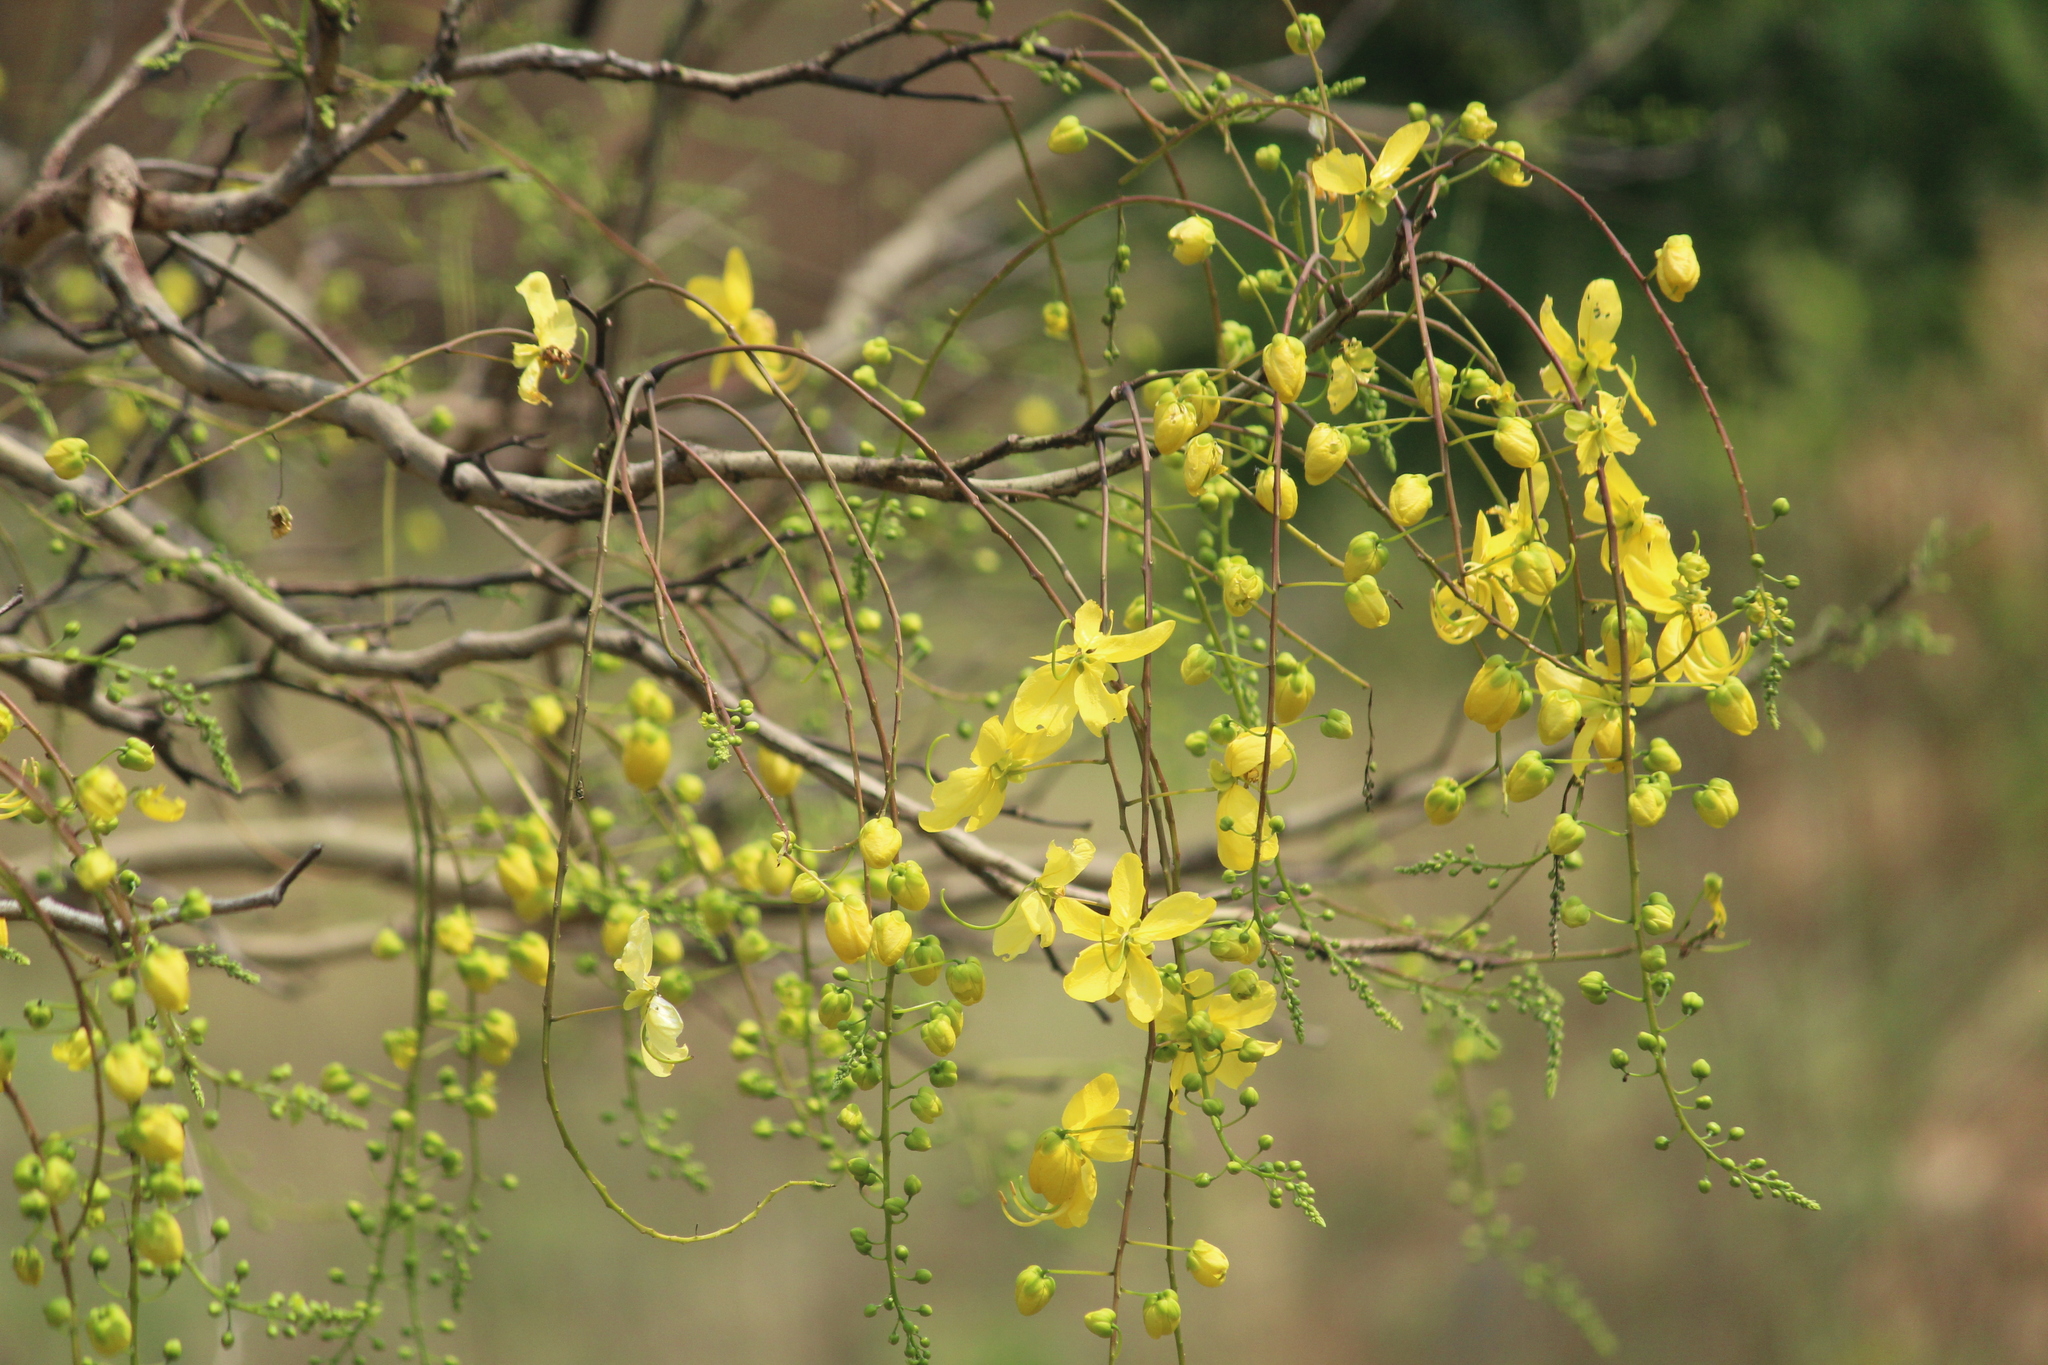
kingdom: Plantae
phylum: Tracheophyta
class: Magnoliopsida
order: Fabales
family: Fabaceae
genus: Cassia
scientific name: Cassia fistula
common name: Golden shower
